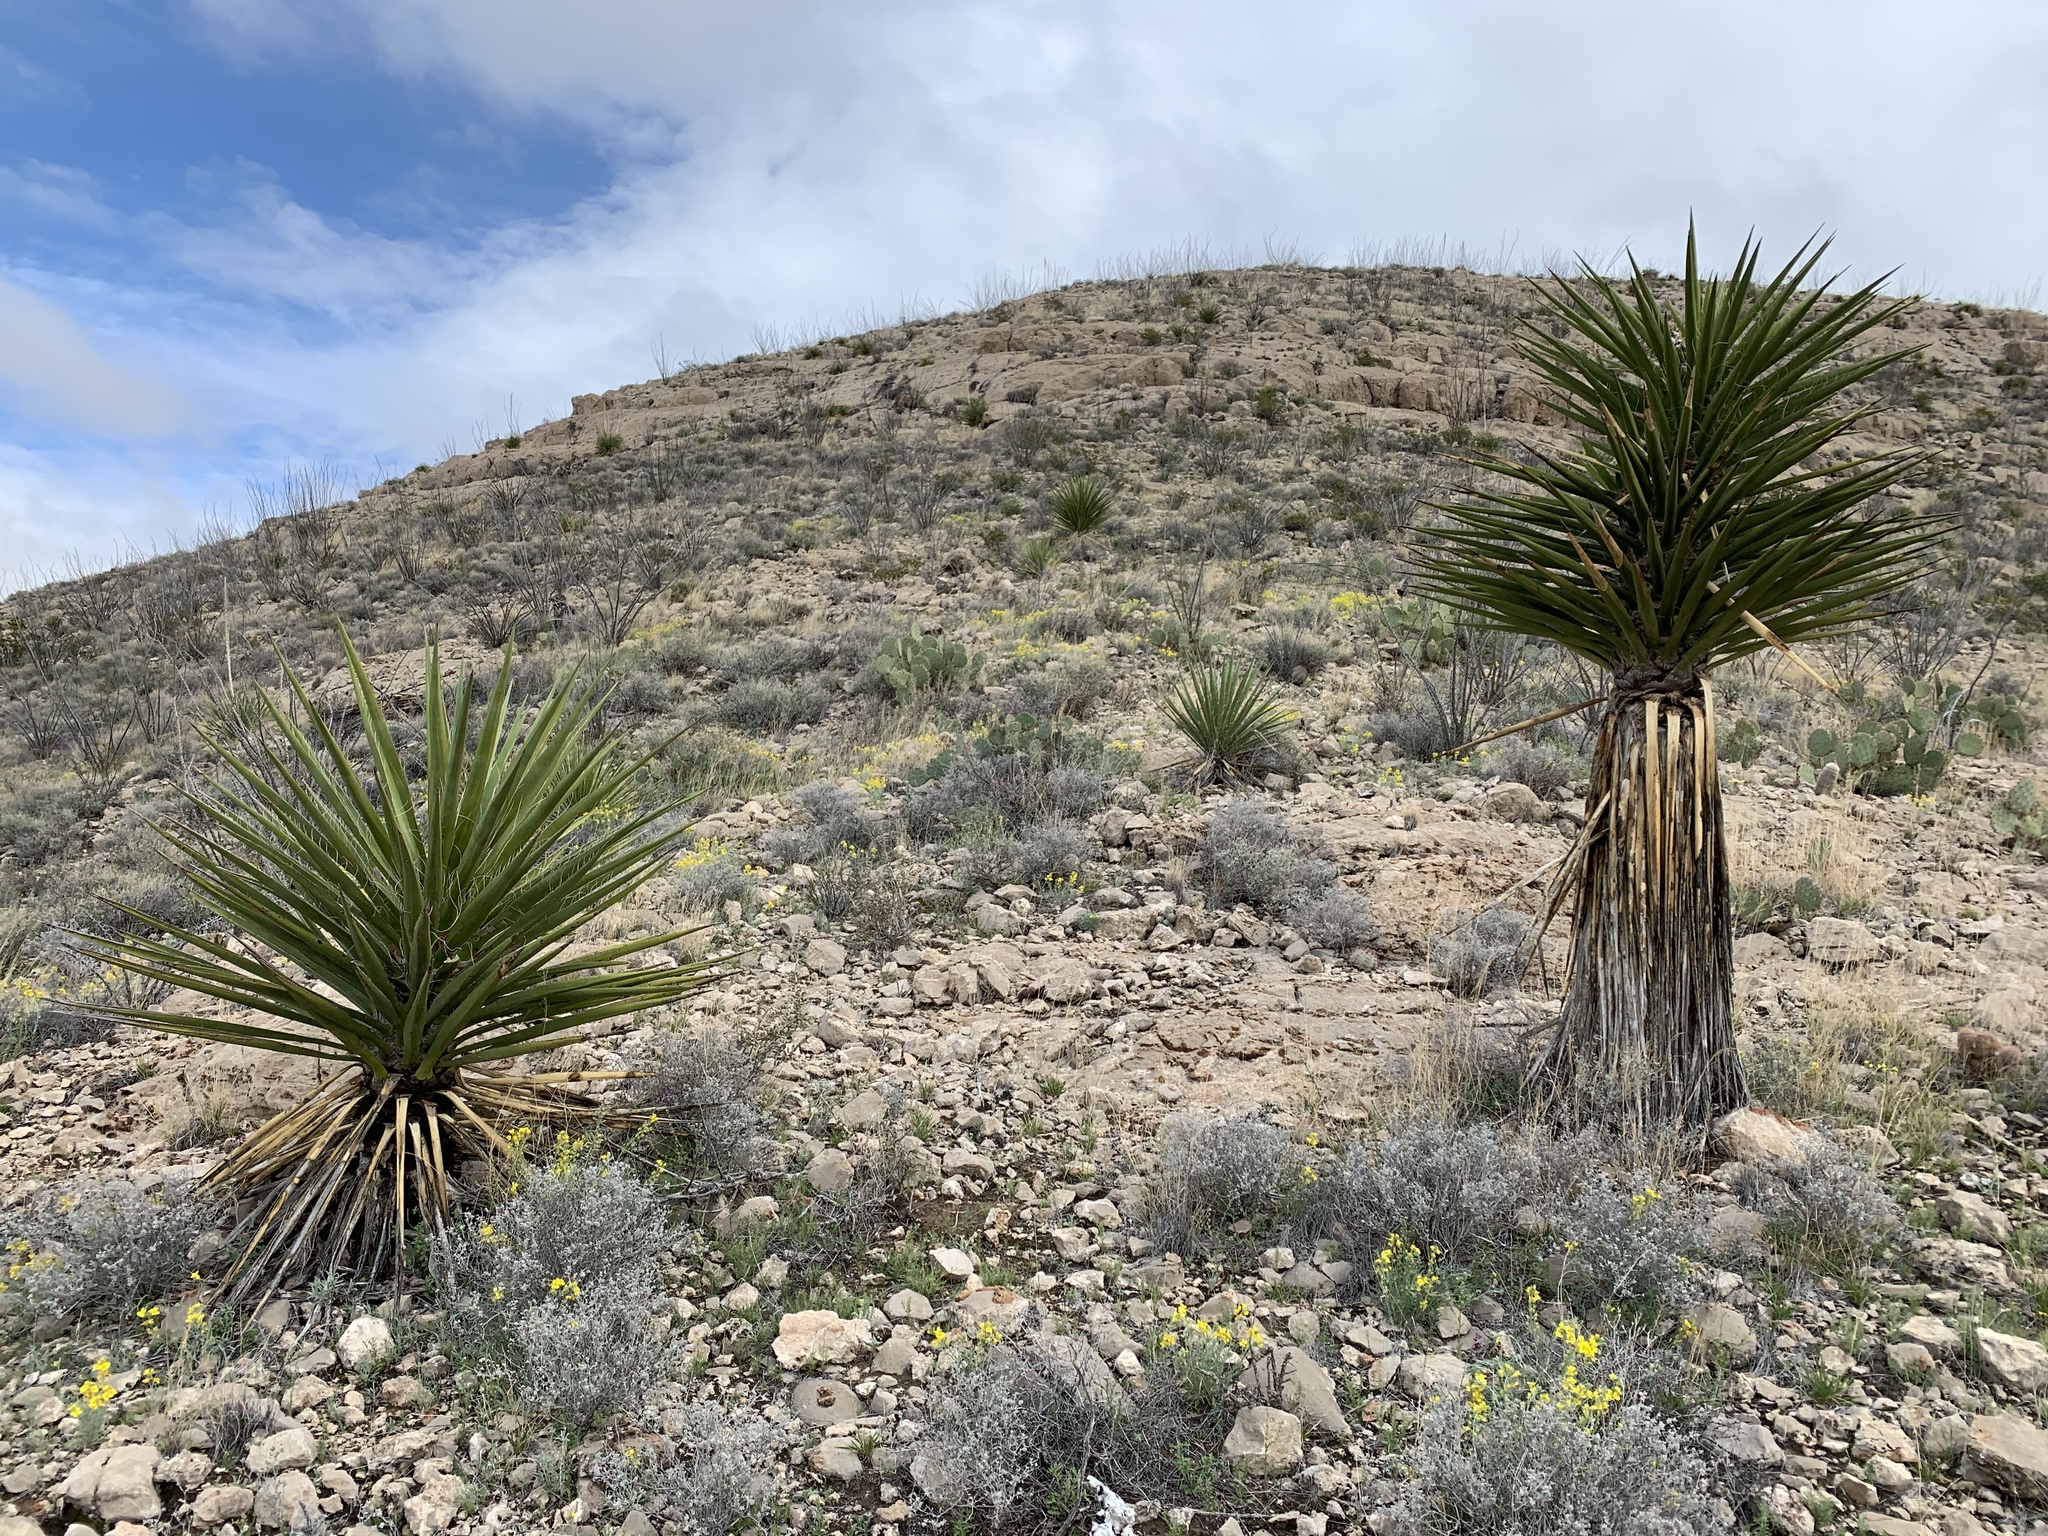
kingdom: Plantae
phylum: Tracheophyta
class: Liliopsida
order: Asparagales
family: Asparagaceae
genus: Yucca
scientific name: Yucca treculiana
